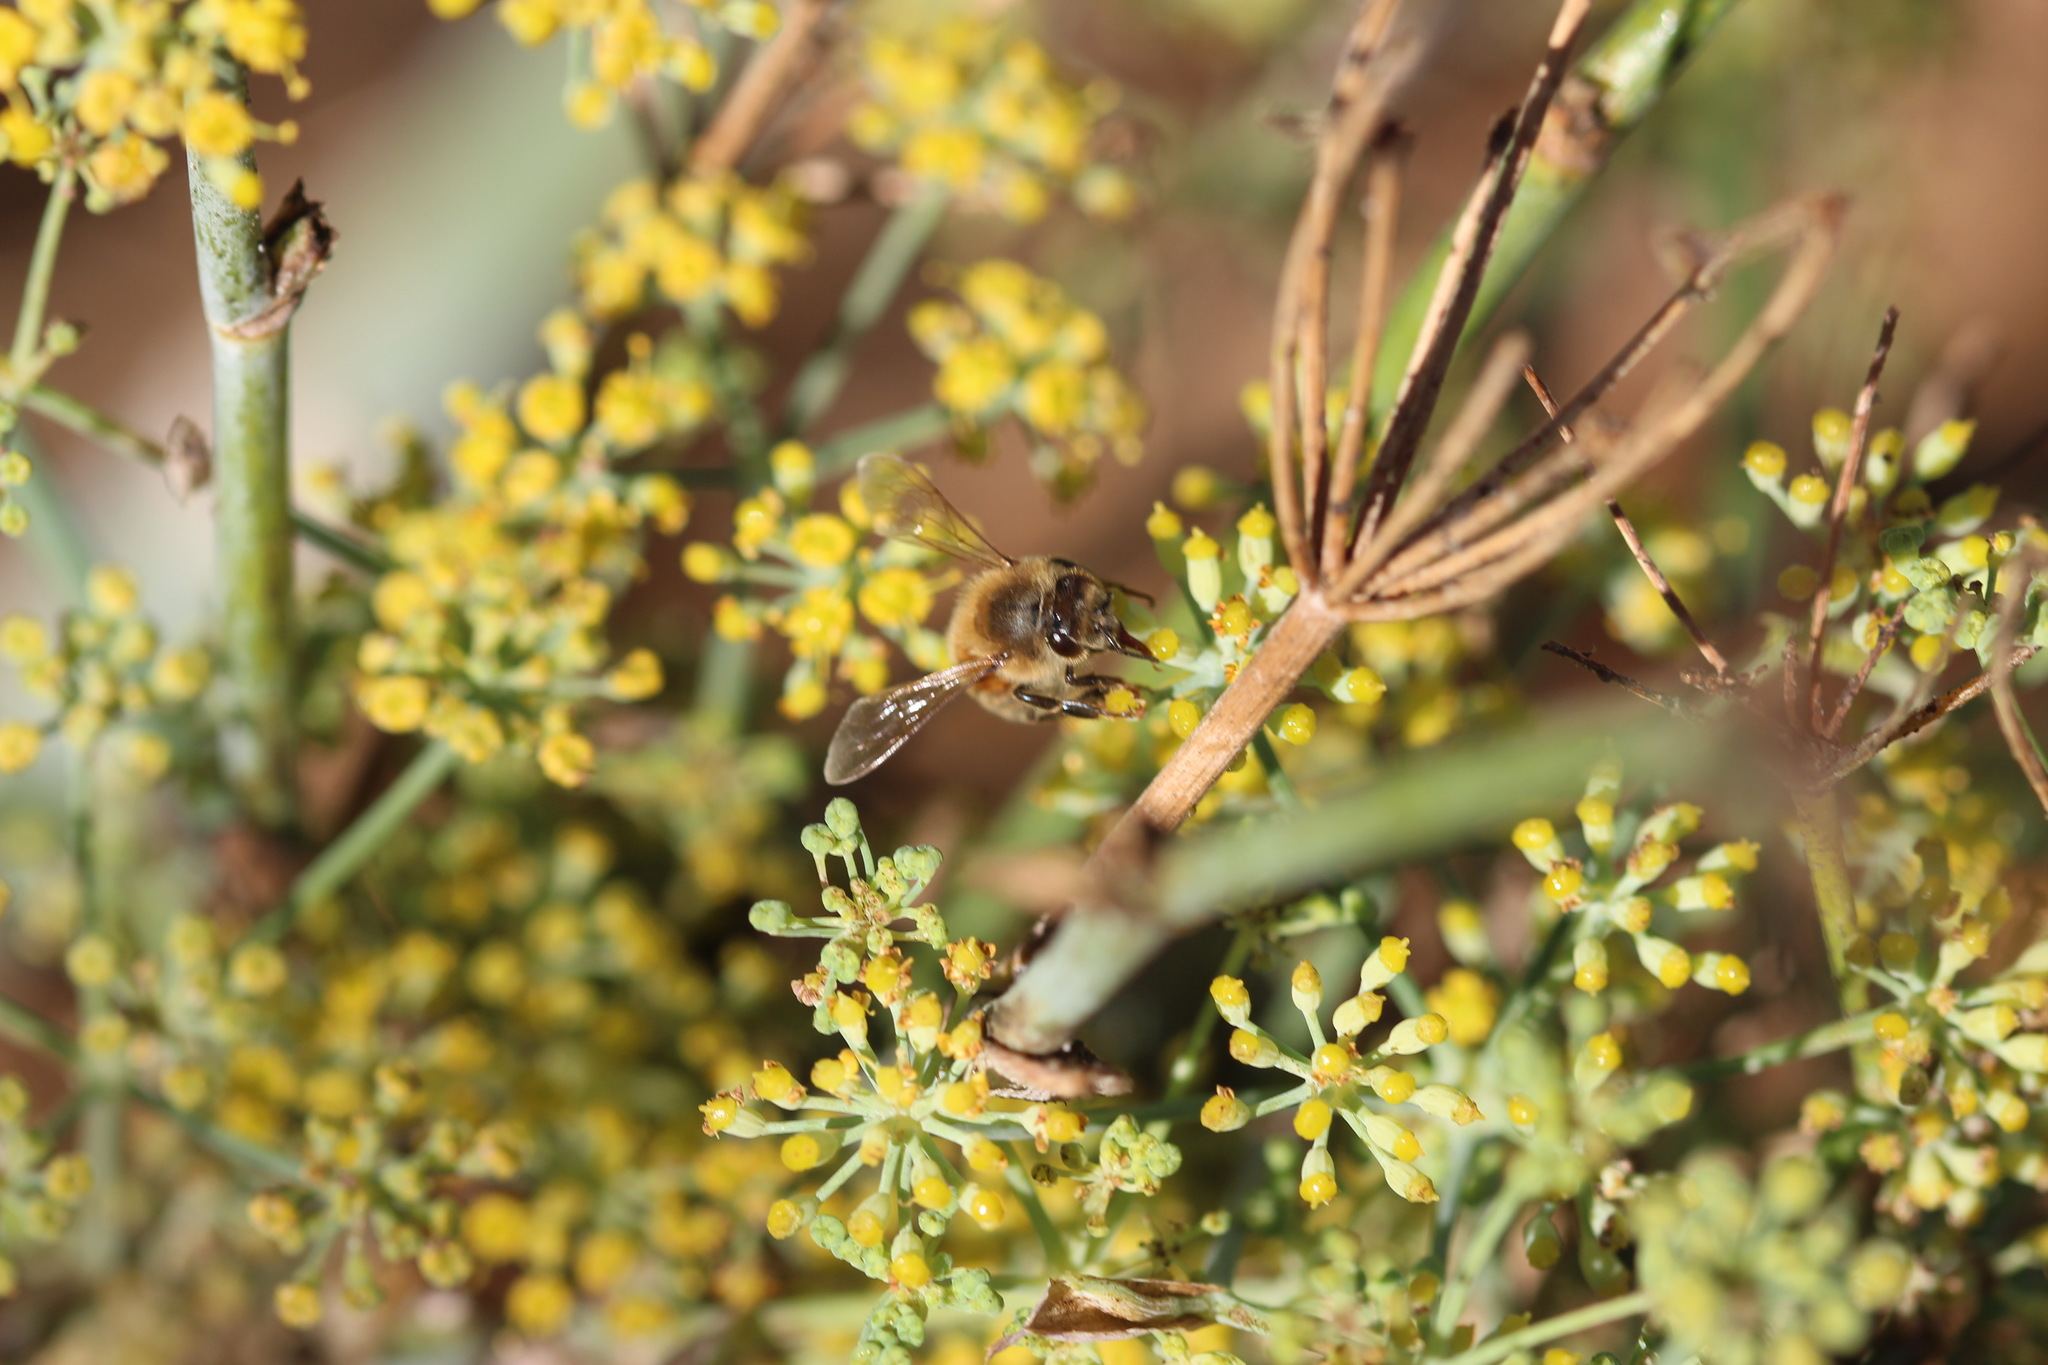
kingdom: Animalia
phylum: Arthropoda
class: Insecta
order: Hymenoptera
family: Apidae
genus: Apis
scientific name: Apis mellifera
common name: Honey bee
